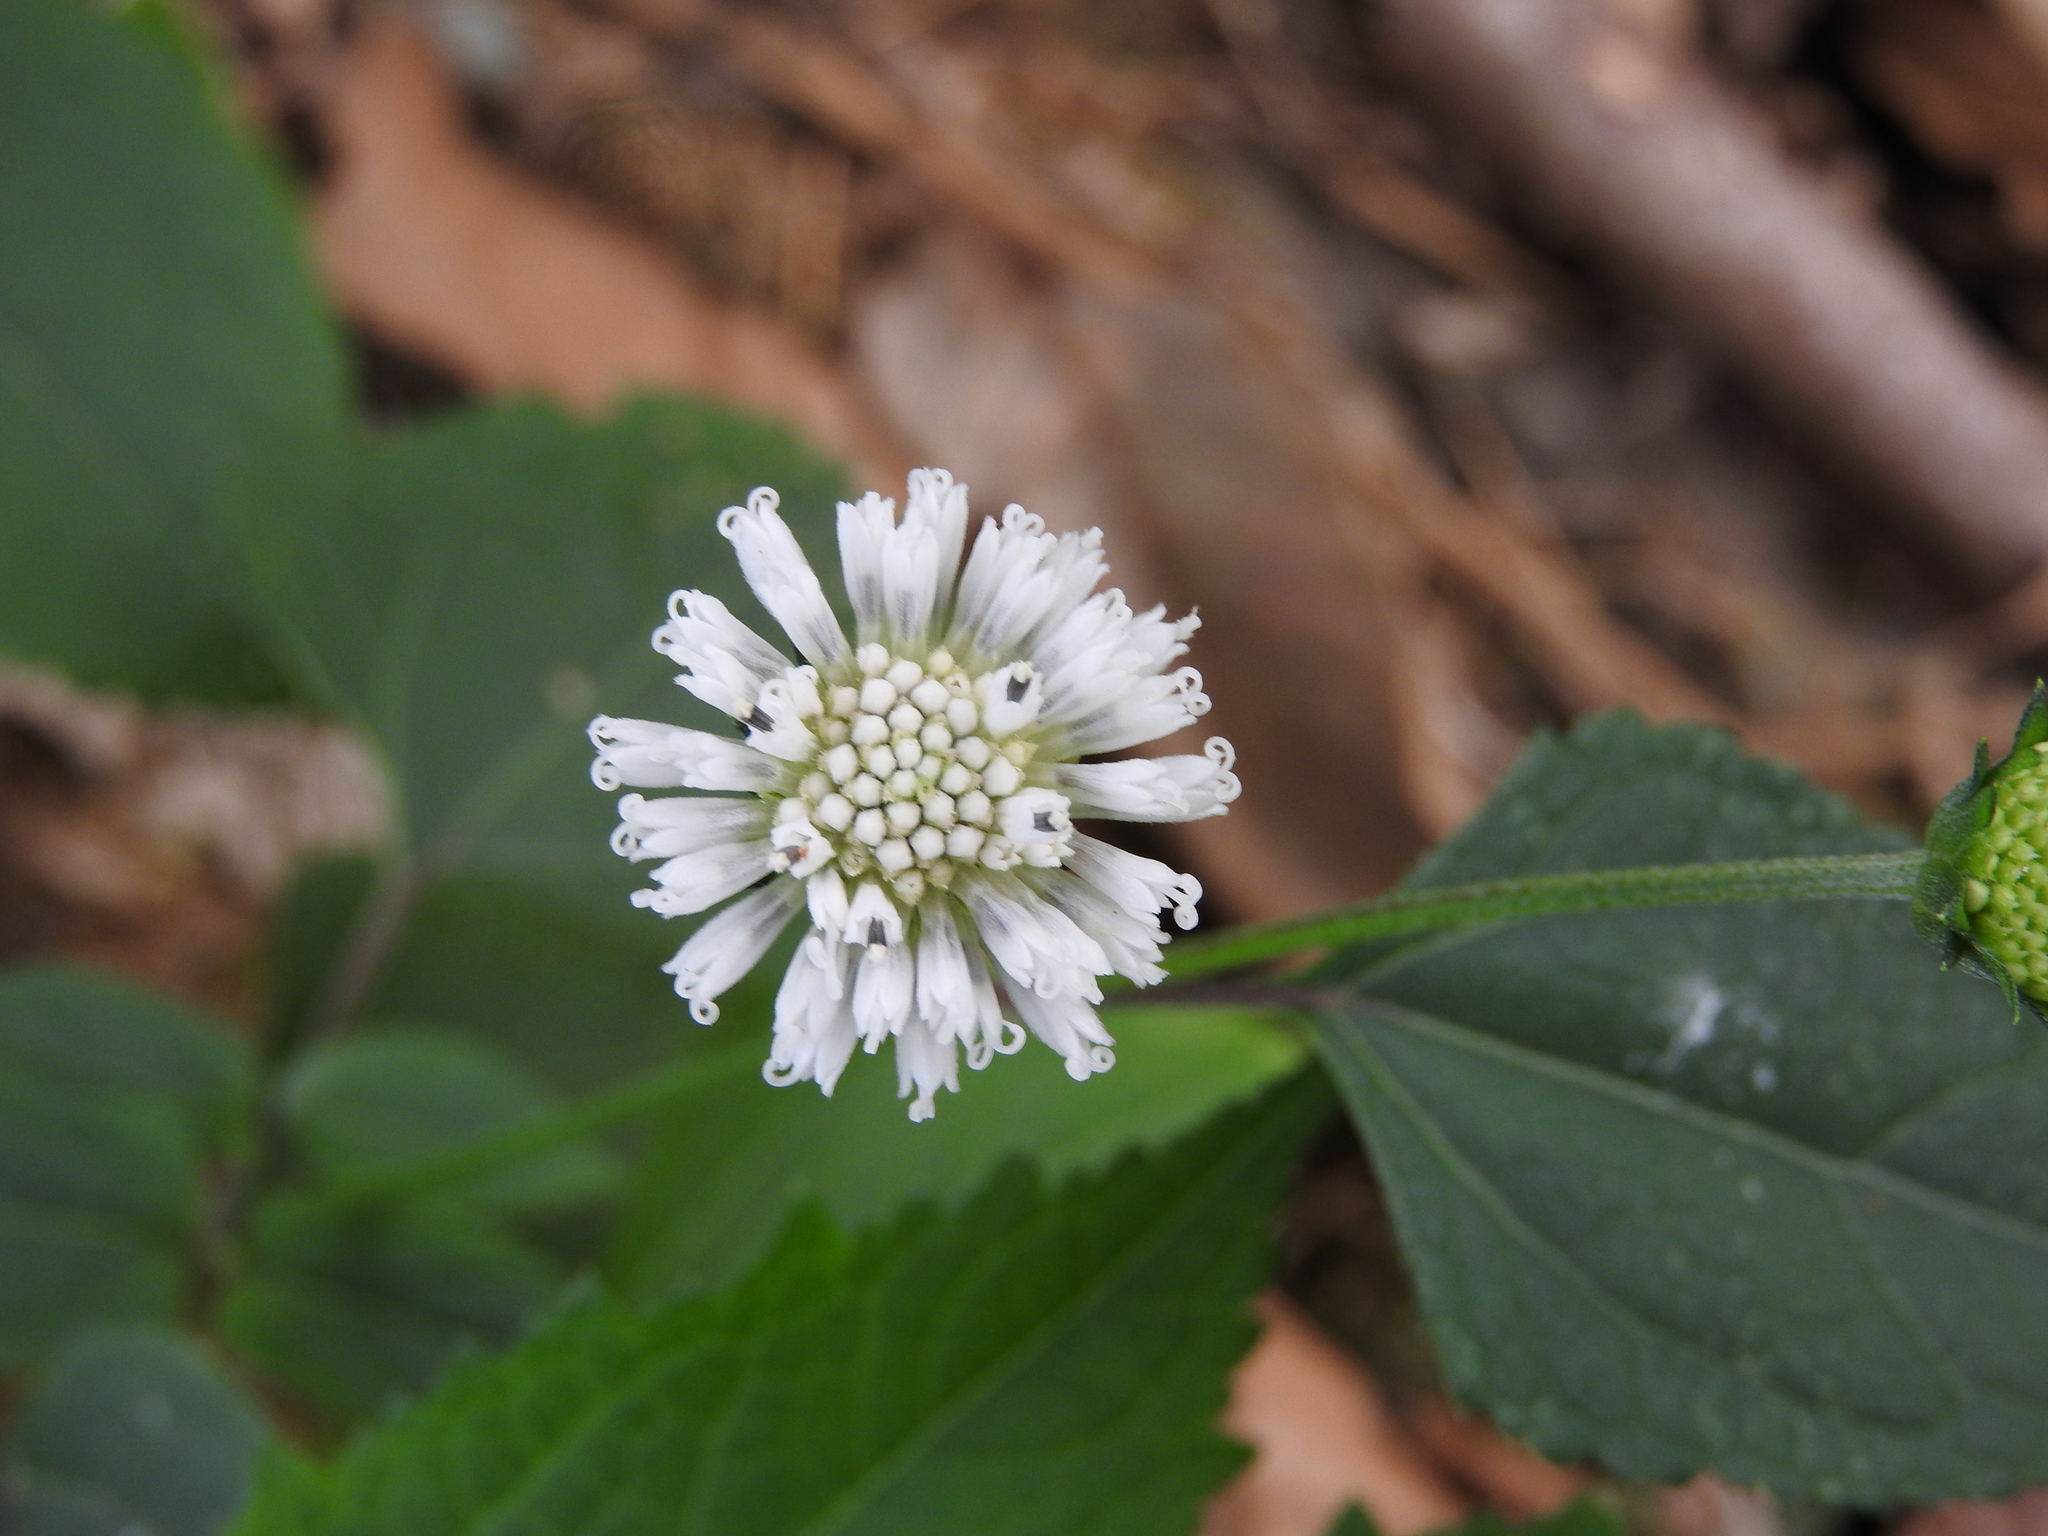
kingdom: Plantae
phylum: Tracheophyta
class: Magnoliopsida
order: Asterales
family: Asteraceae
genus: Melanthera
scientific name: Melanthera nivea
